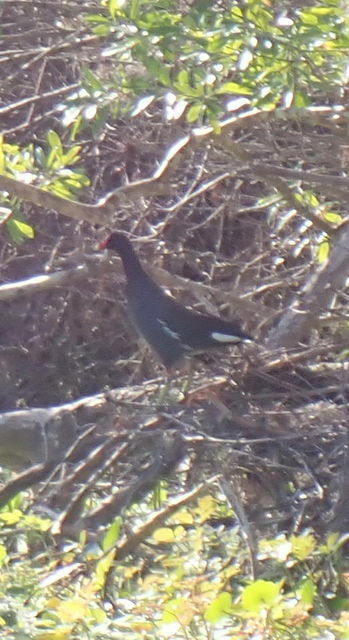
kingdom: Animalia
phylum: Chordata
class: Aves
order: Gruiformes
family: Rallidae
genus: Gallinula
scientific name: Gallinula chloropus
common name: Common moorhen
